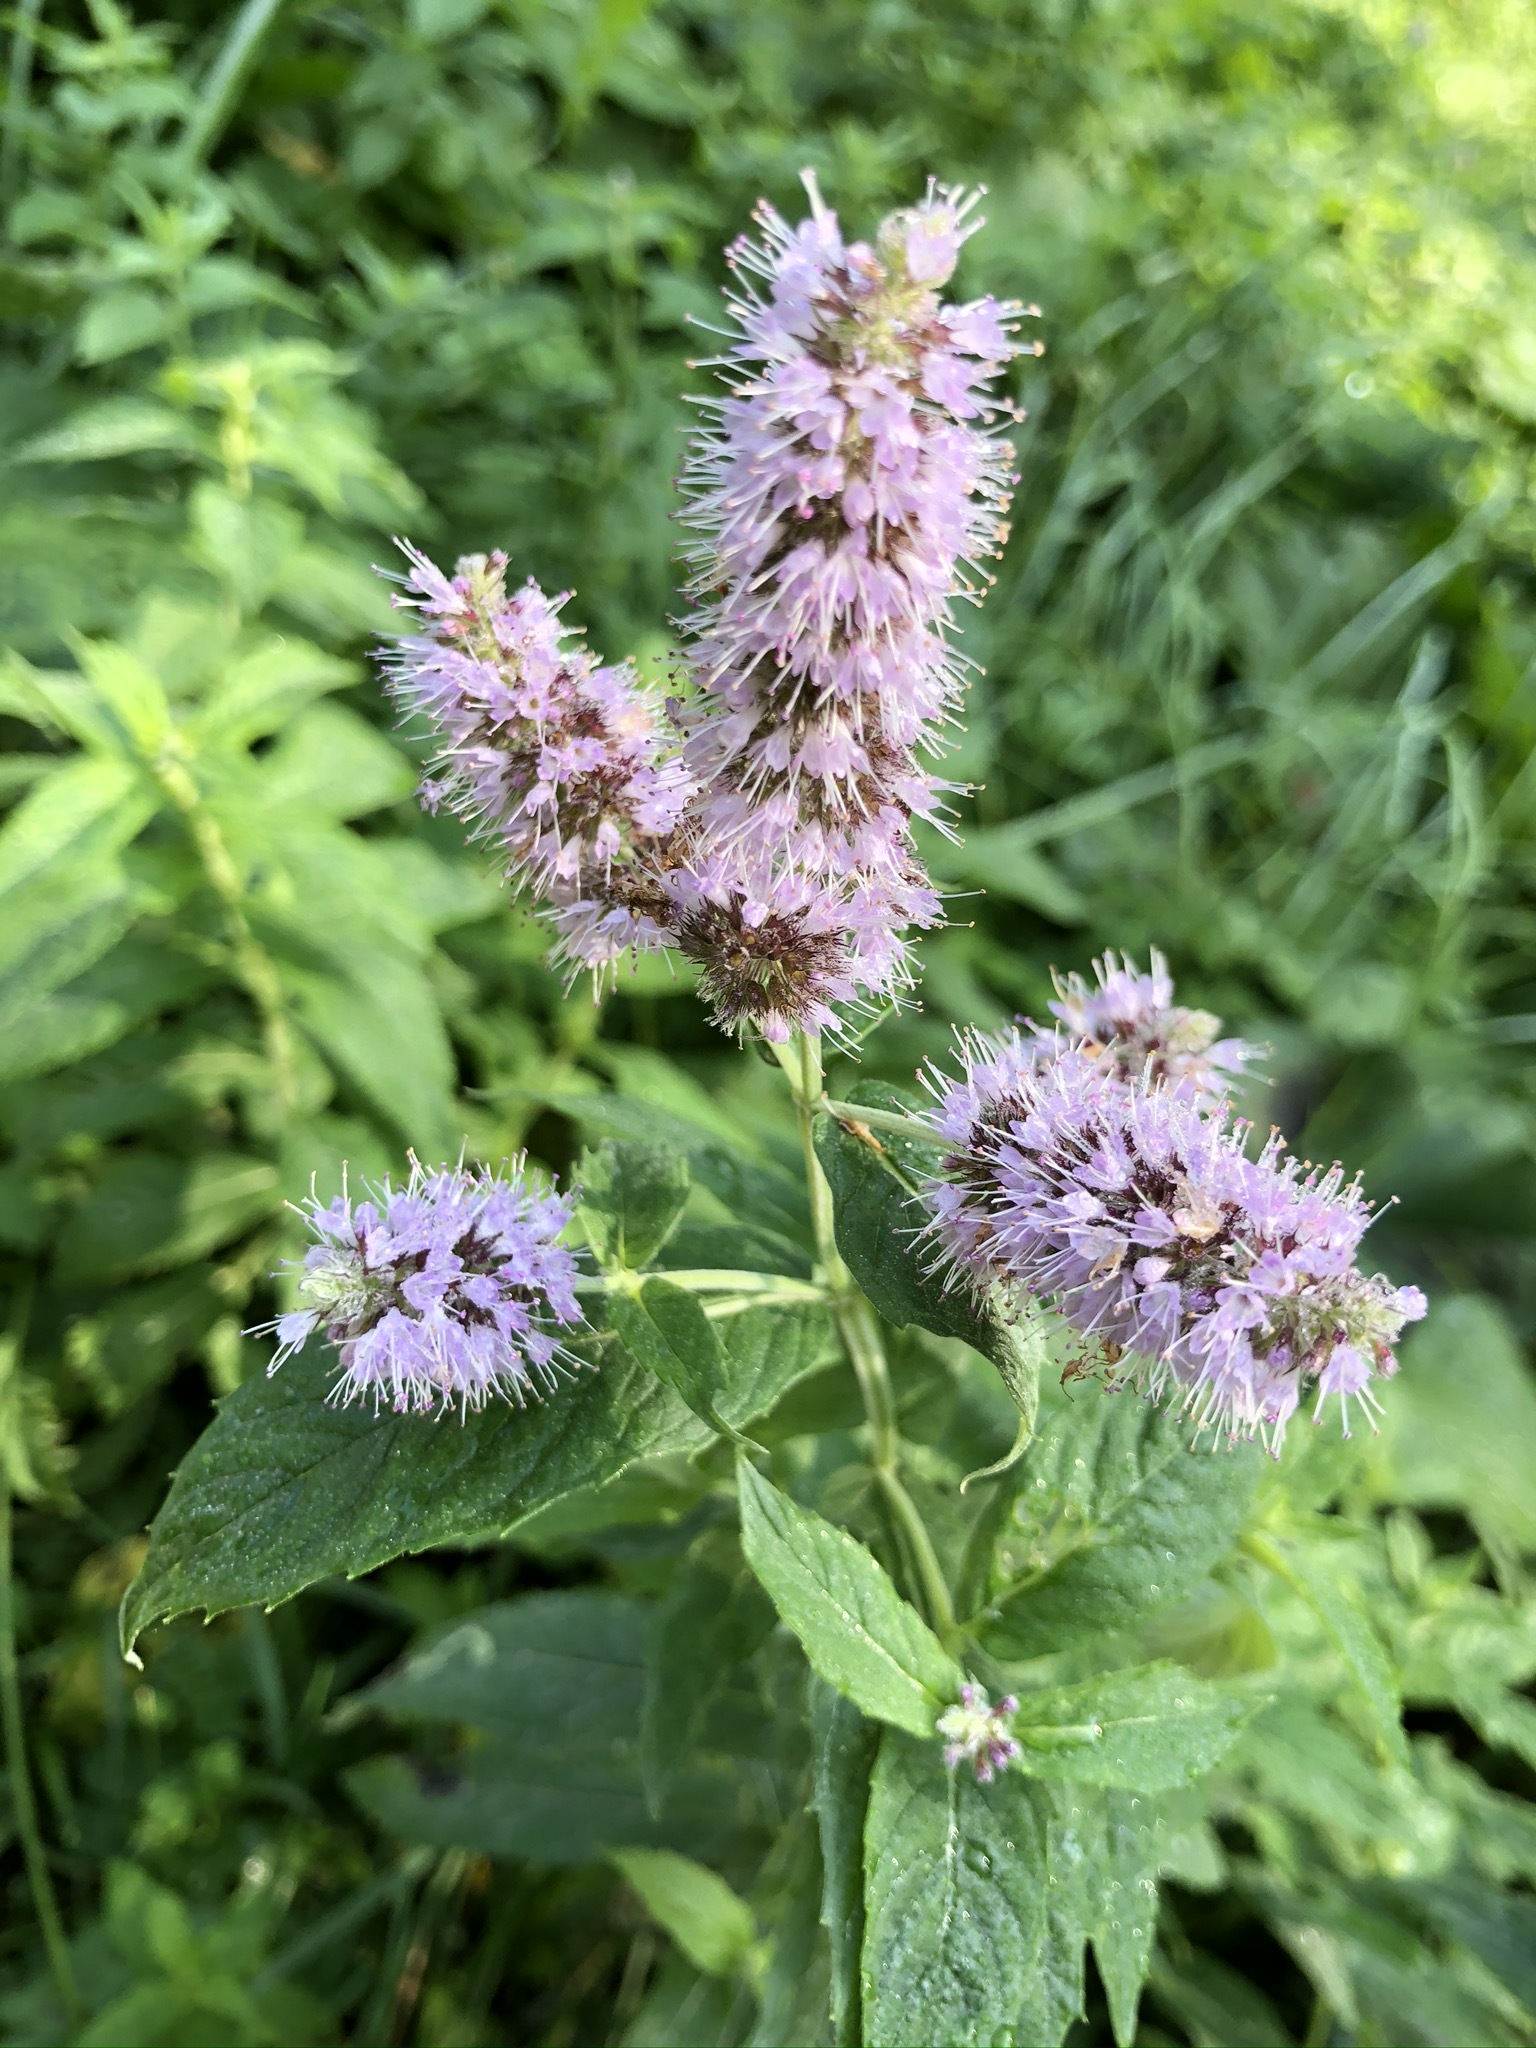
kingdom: Plantae
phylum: Tracheophyta
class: Magnoliopsida
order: Lamiales
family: Lamiaceae
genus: Mentha
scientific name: Mentha longifolia
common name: Horse mint
